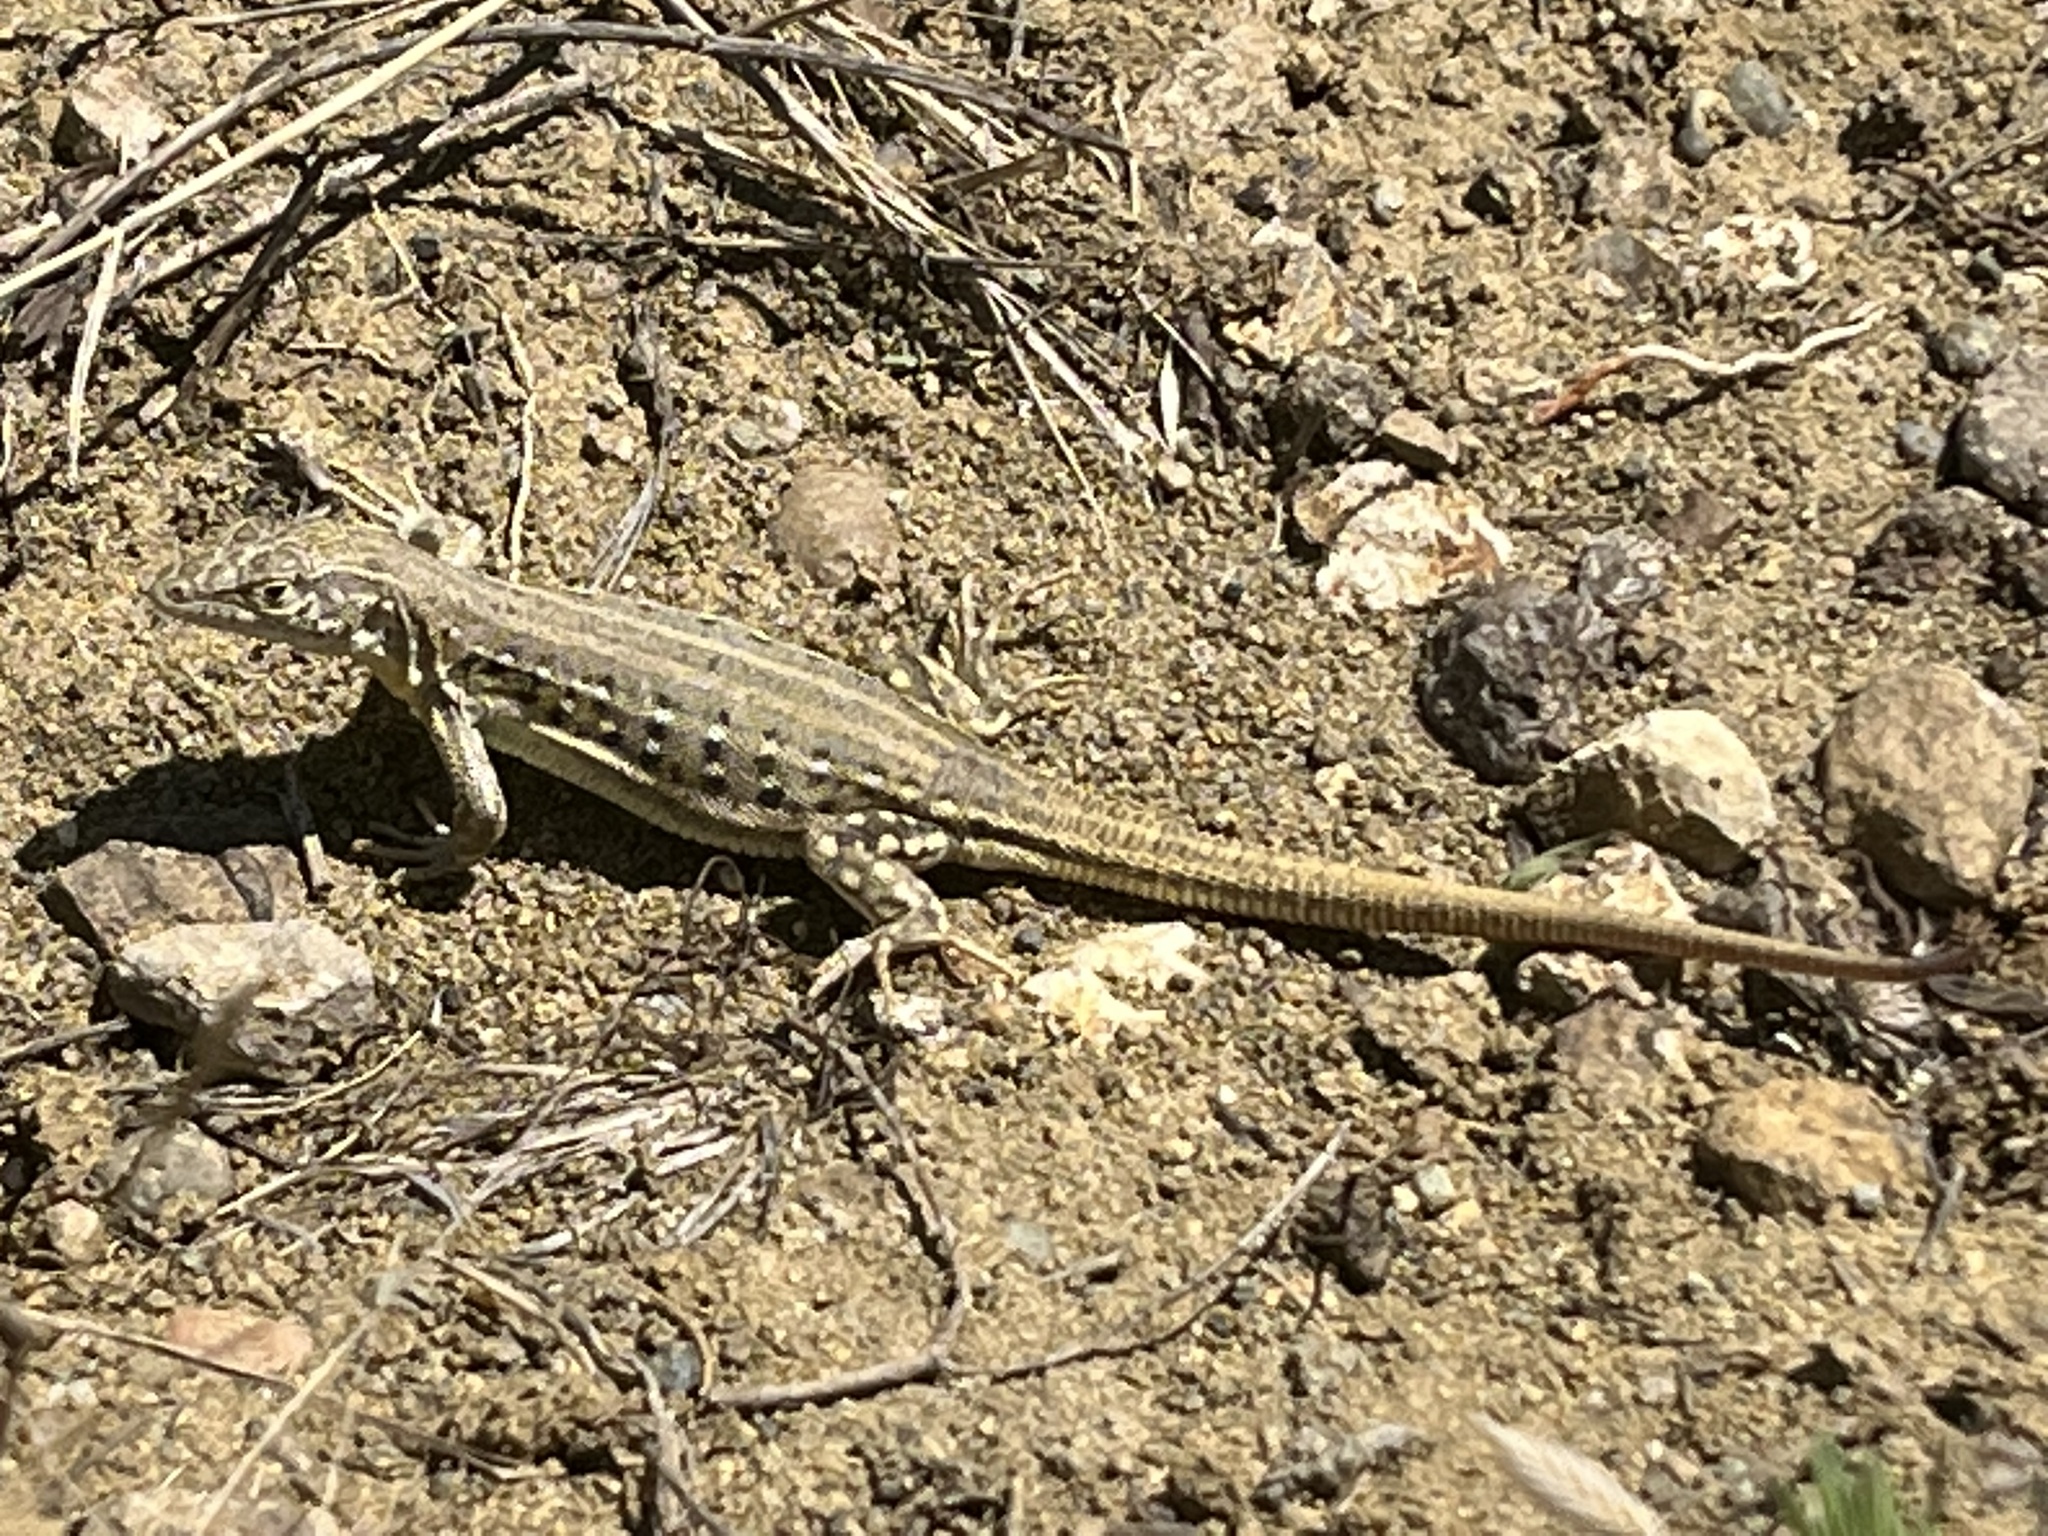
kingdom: Animalia
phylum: Chordata
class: Squamata
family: Lacertidae
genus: Eremias
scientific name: Eremias velox
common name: Central asian racerunner
